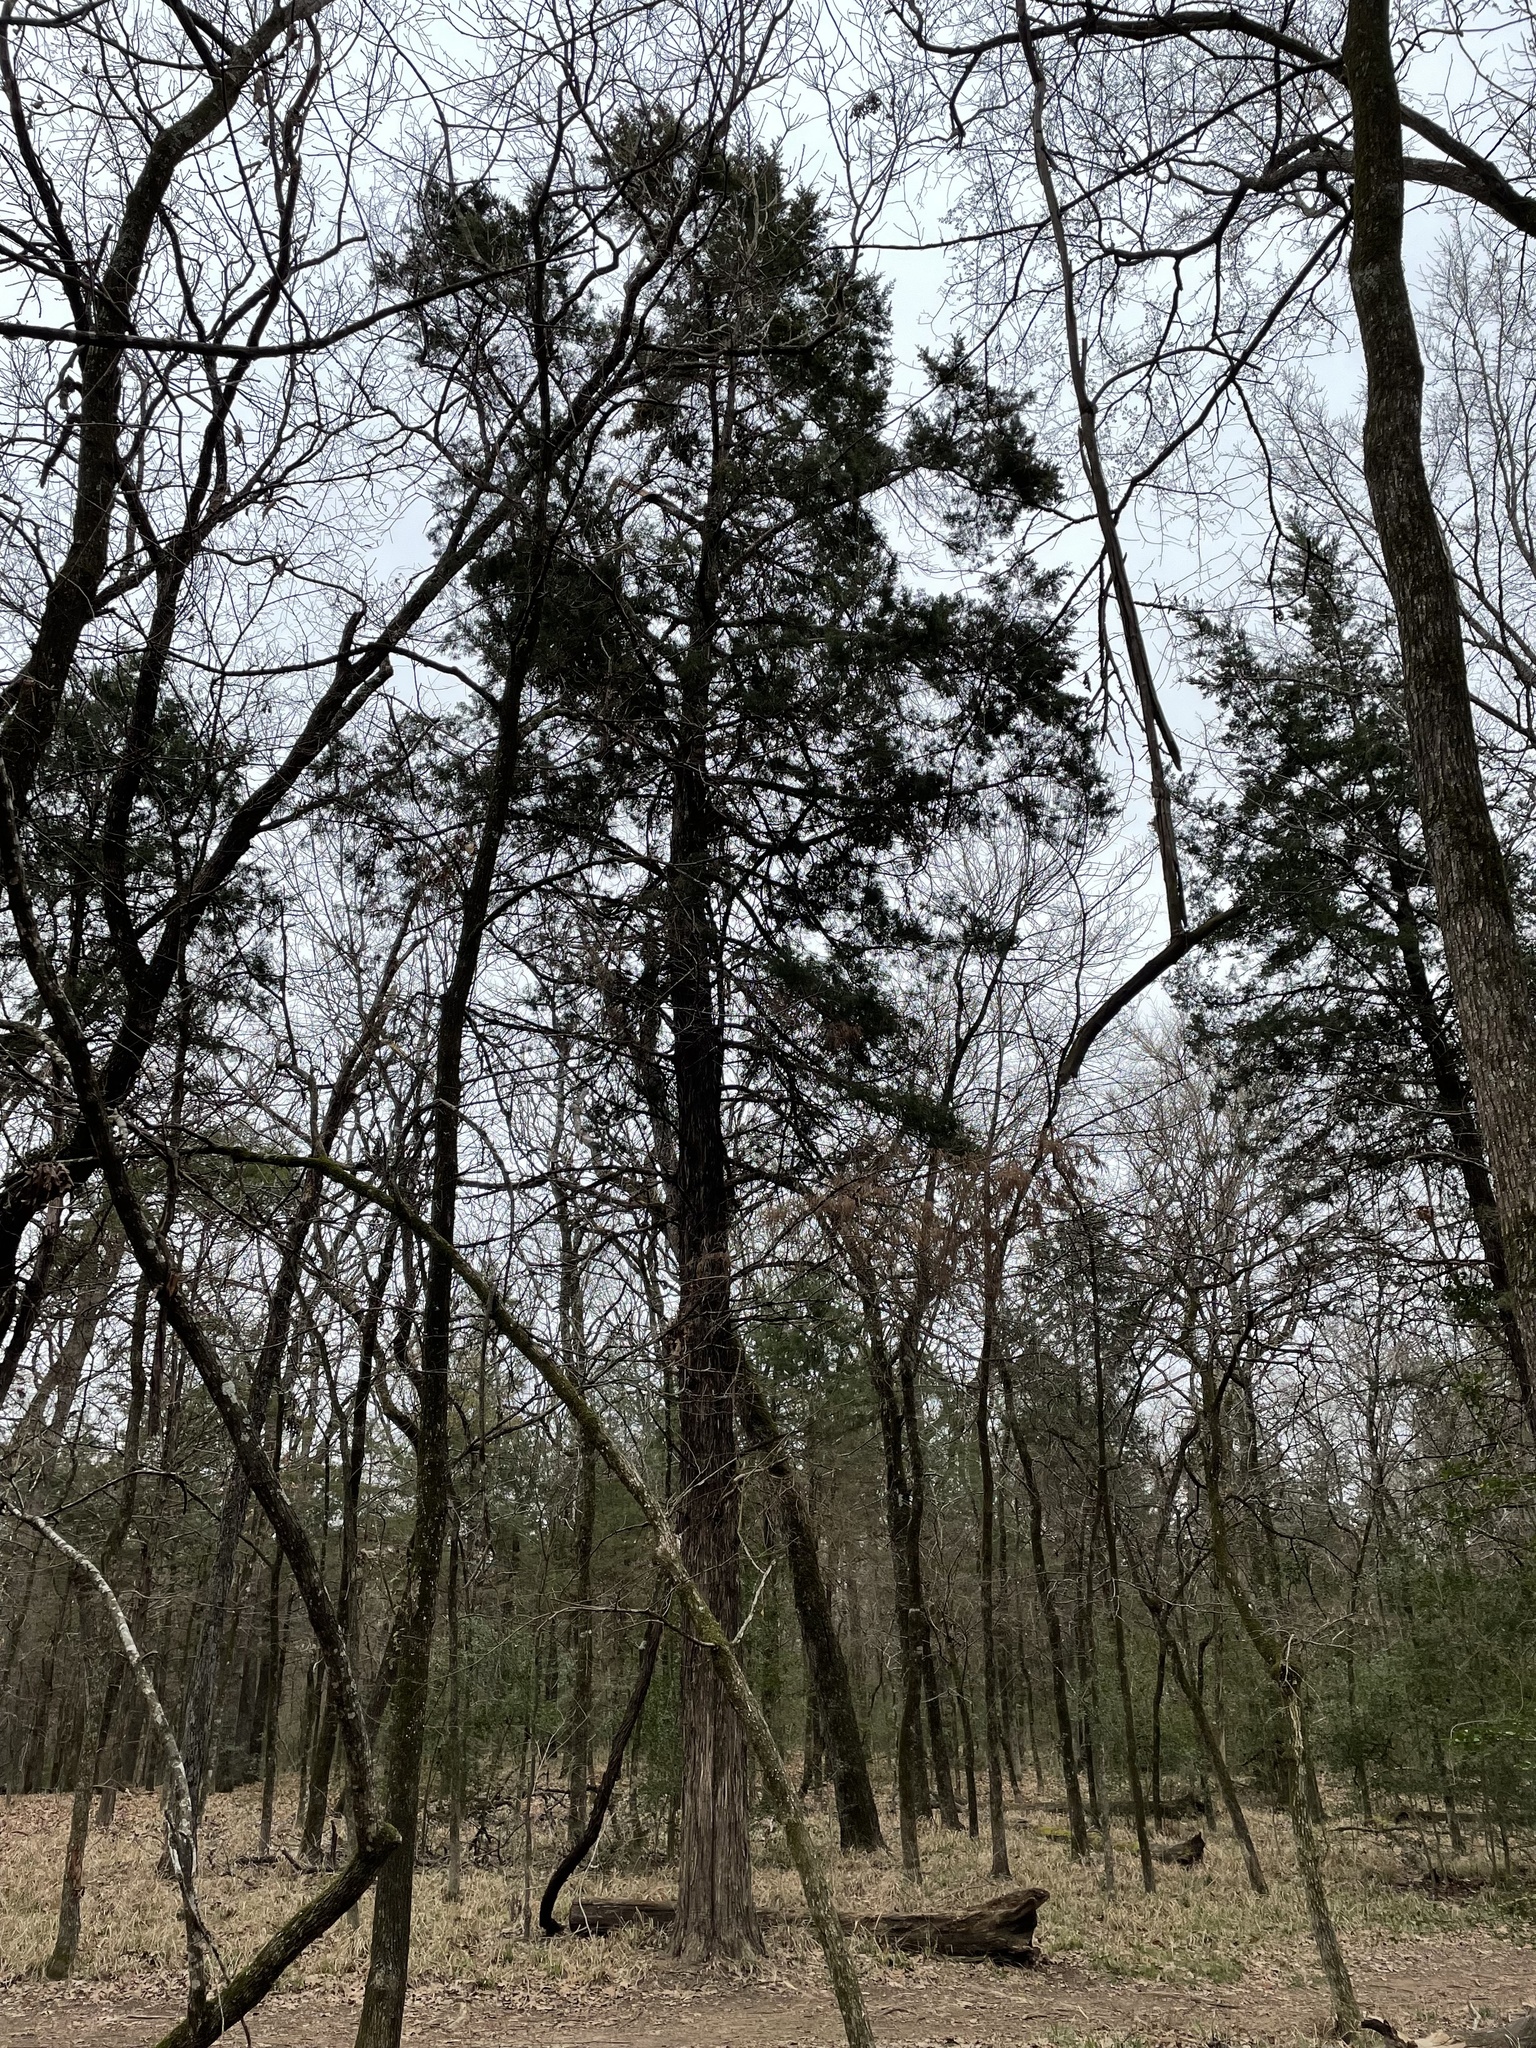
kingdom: Plantae
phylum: Tracheophyta
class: Pinopsida
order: Pinales
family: Cupressaceae
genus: Juniperus
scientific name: Juniperus virginiana
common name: Red juniper
